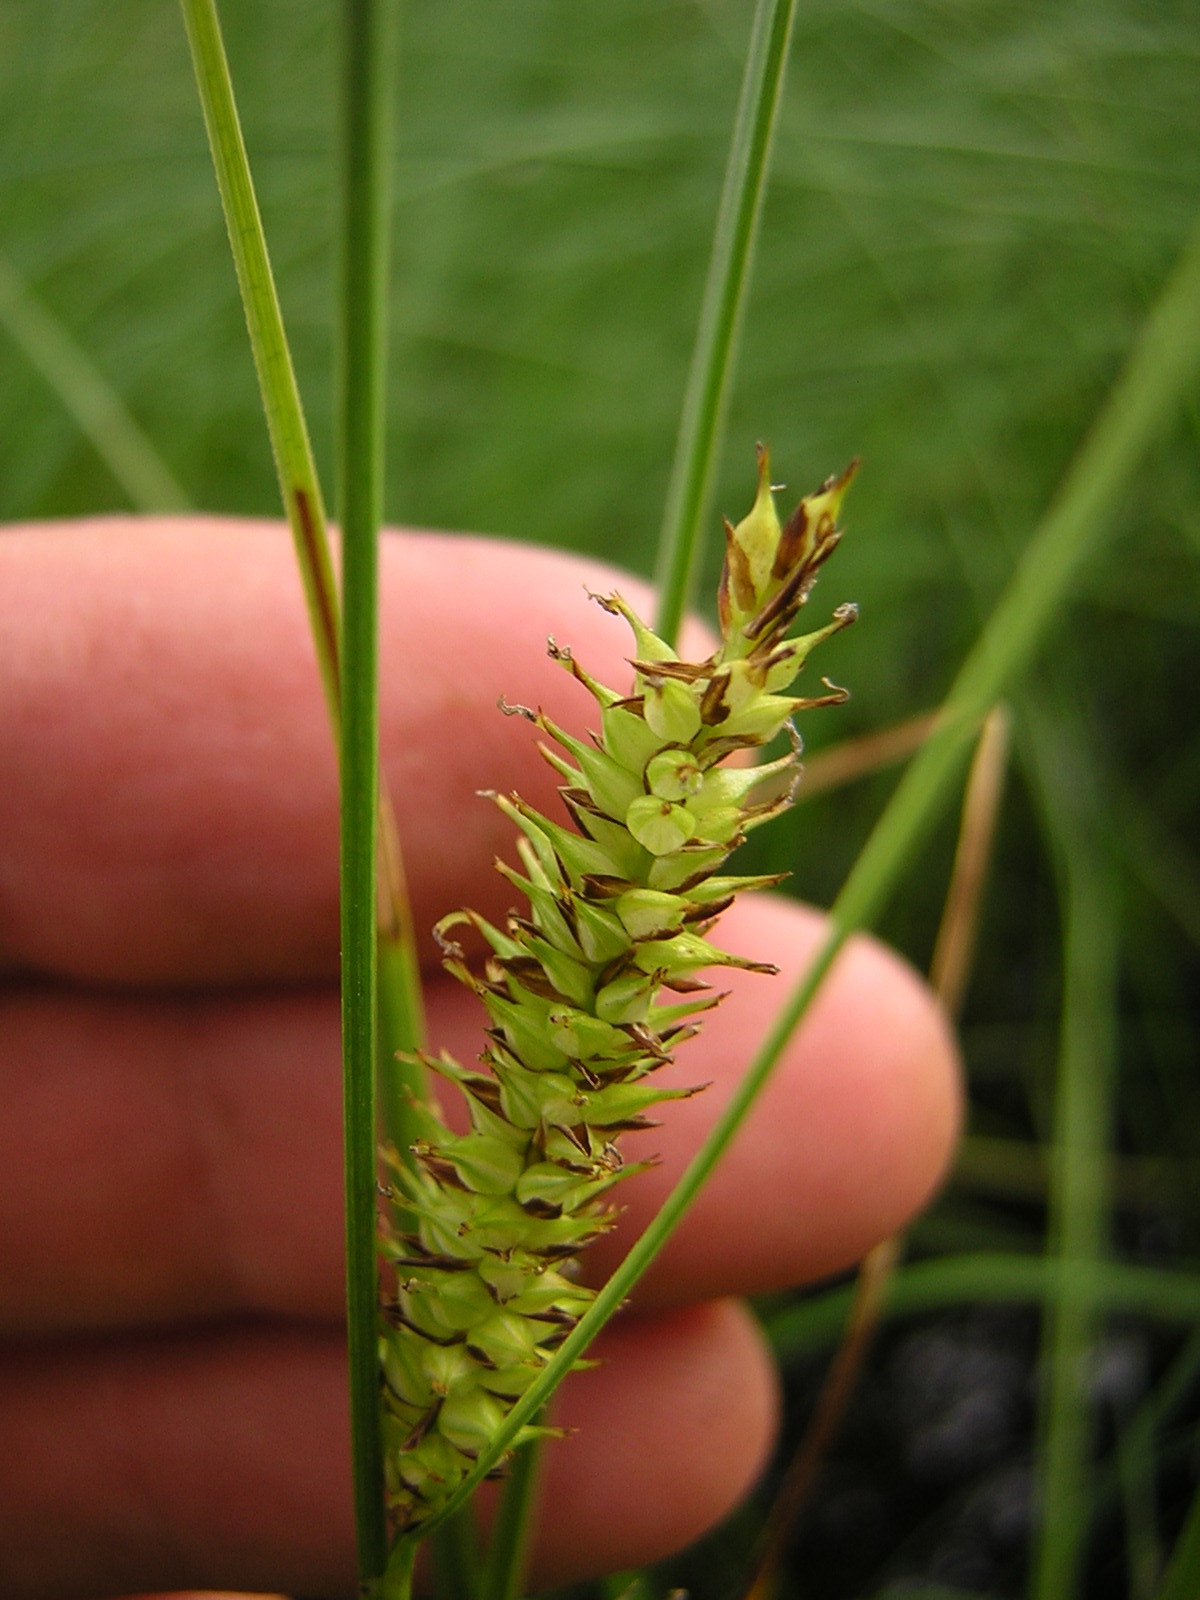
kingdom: Plantae
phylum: Tracheophyta
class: Liliopsida
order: Poales
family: Cyperaceae
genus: Carex
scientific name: Carex rostrata
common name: Bottle sedge
